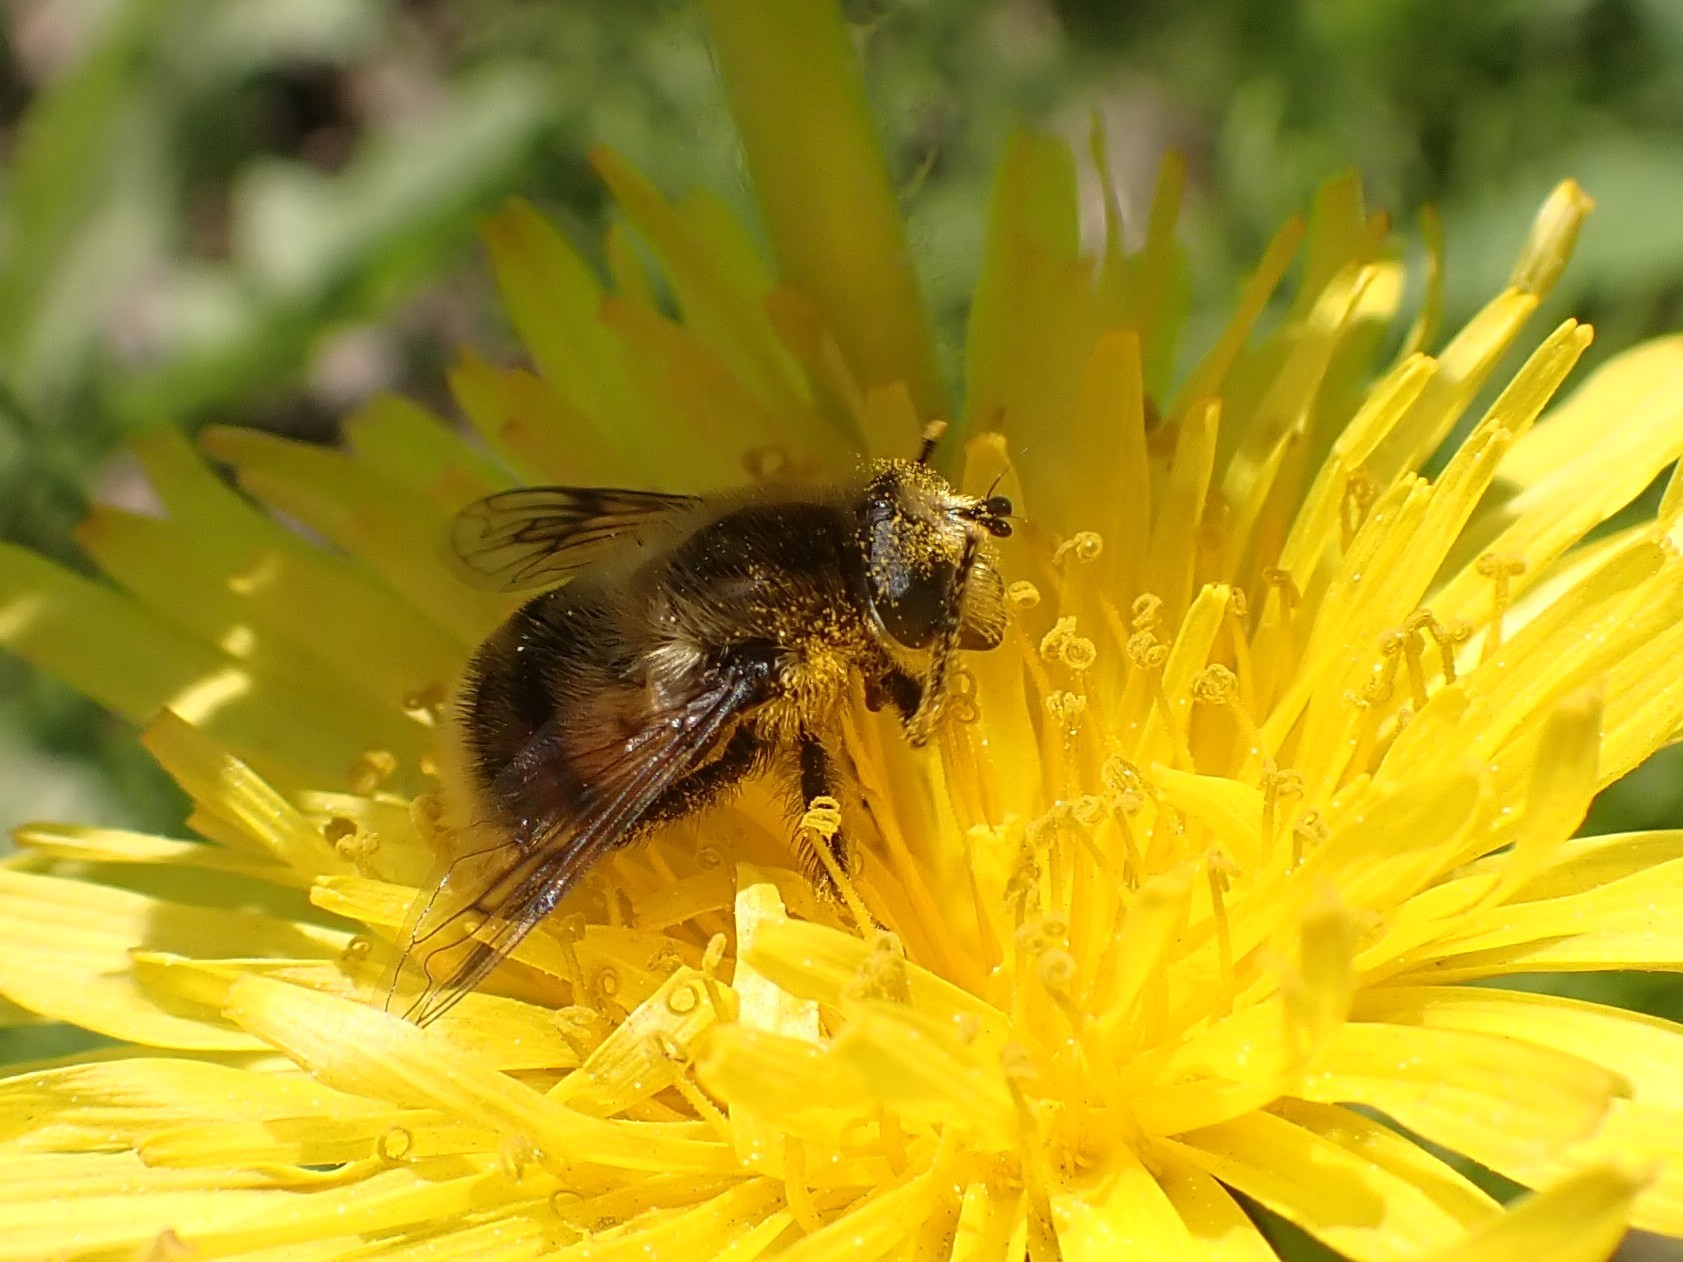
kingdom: Animalia
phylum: Arthropoda
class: Insecta
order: Diptera
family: Syrphidae
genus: Eristalis
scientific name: Eristalis anthophorina
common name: Orange-spotted drone fly
